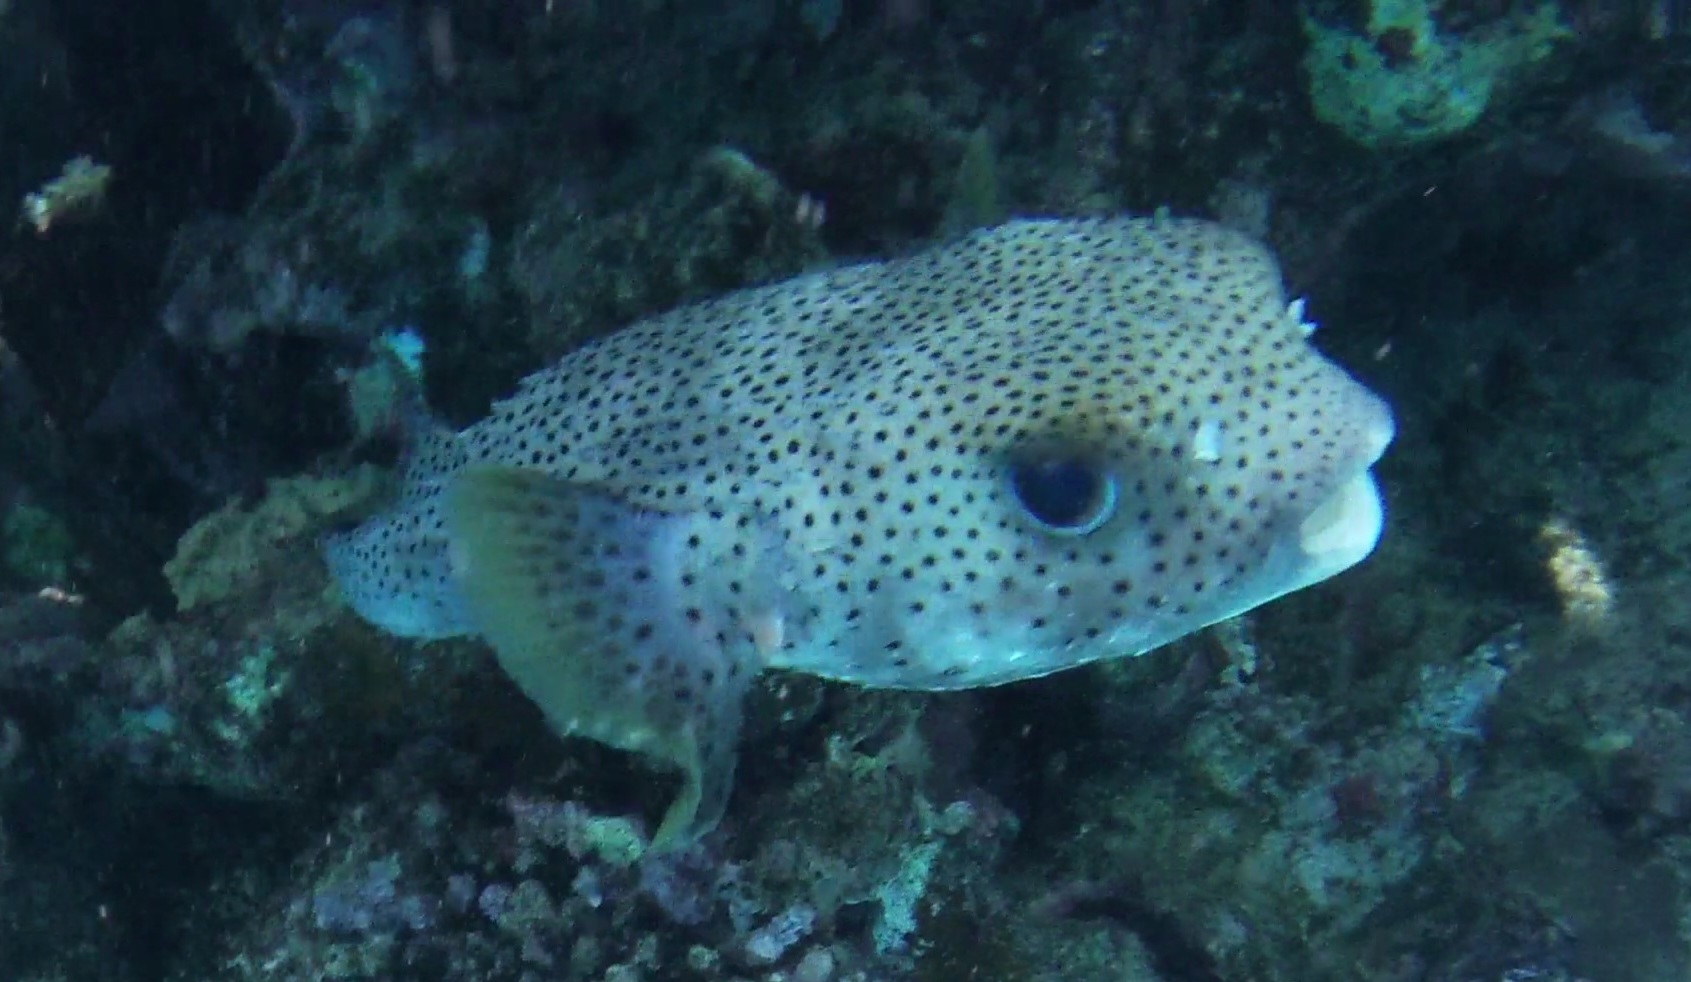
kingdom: Animalia
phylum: Chordata
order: Tetraodontiformes
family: Diodontidae
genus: Diodon
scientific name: Diodon hystrix
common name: Giant porcupinefish
